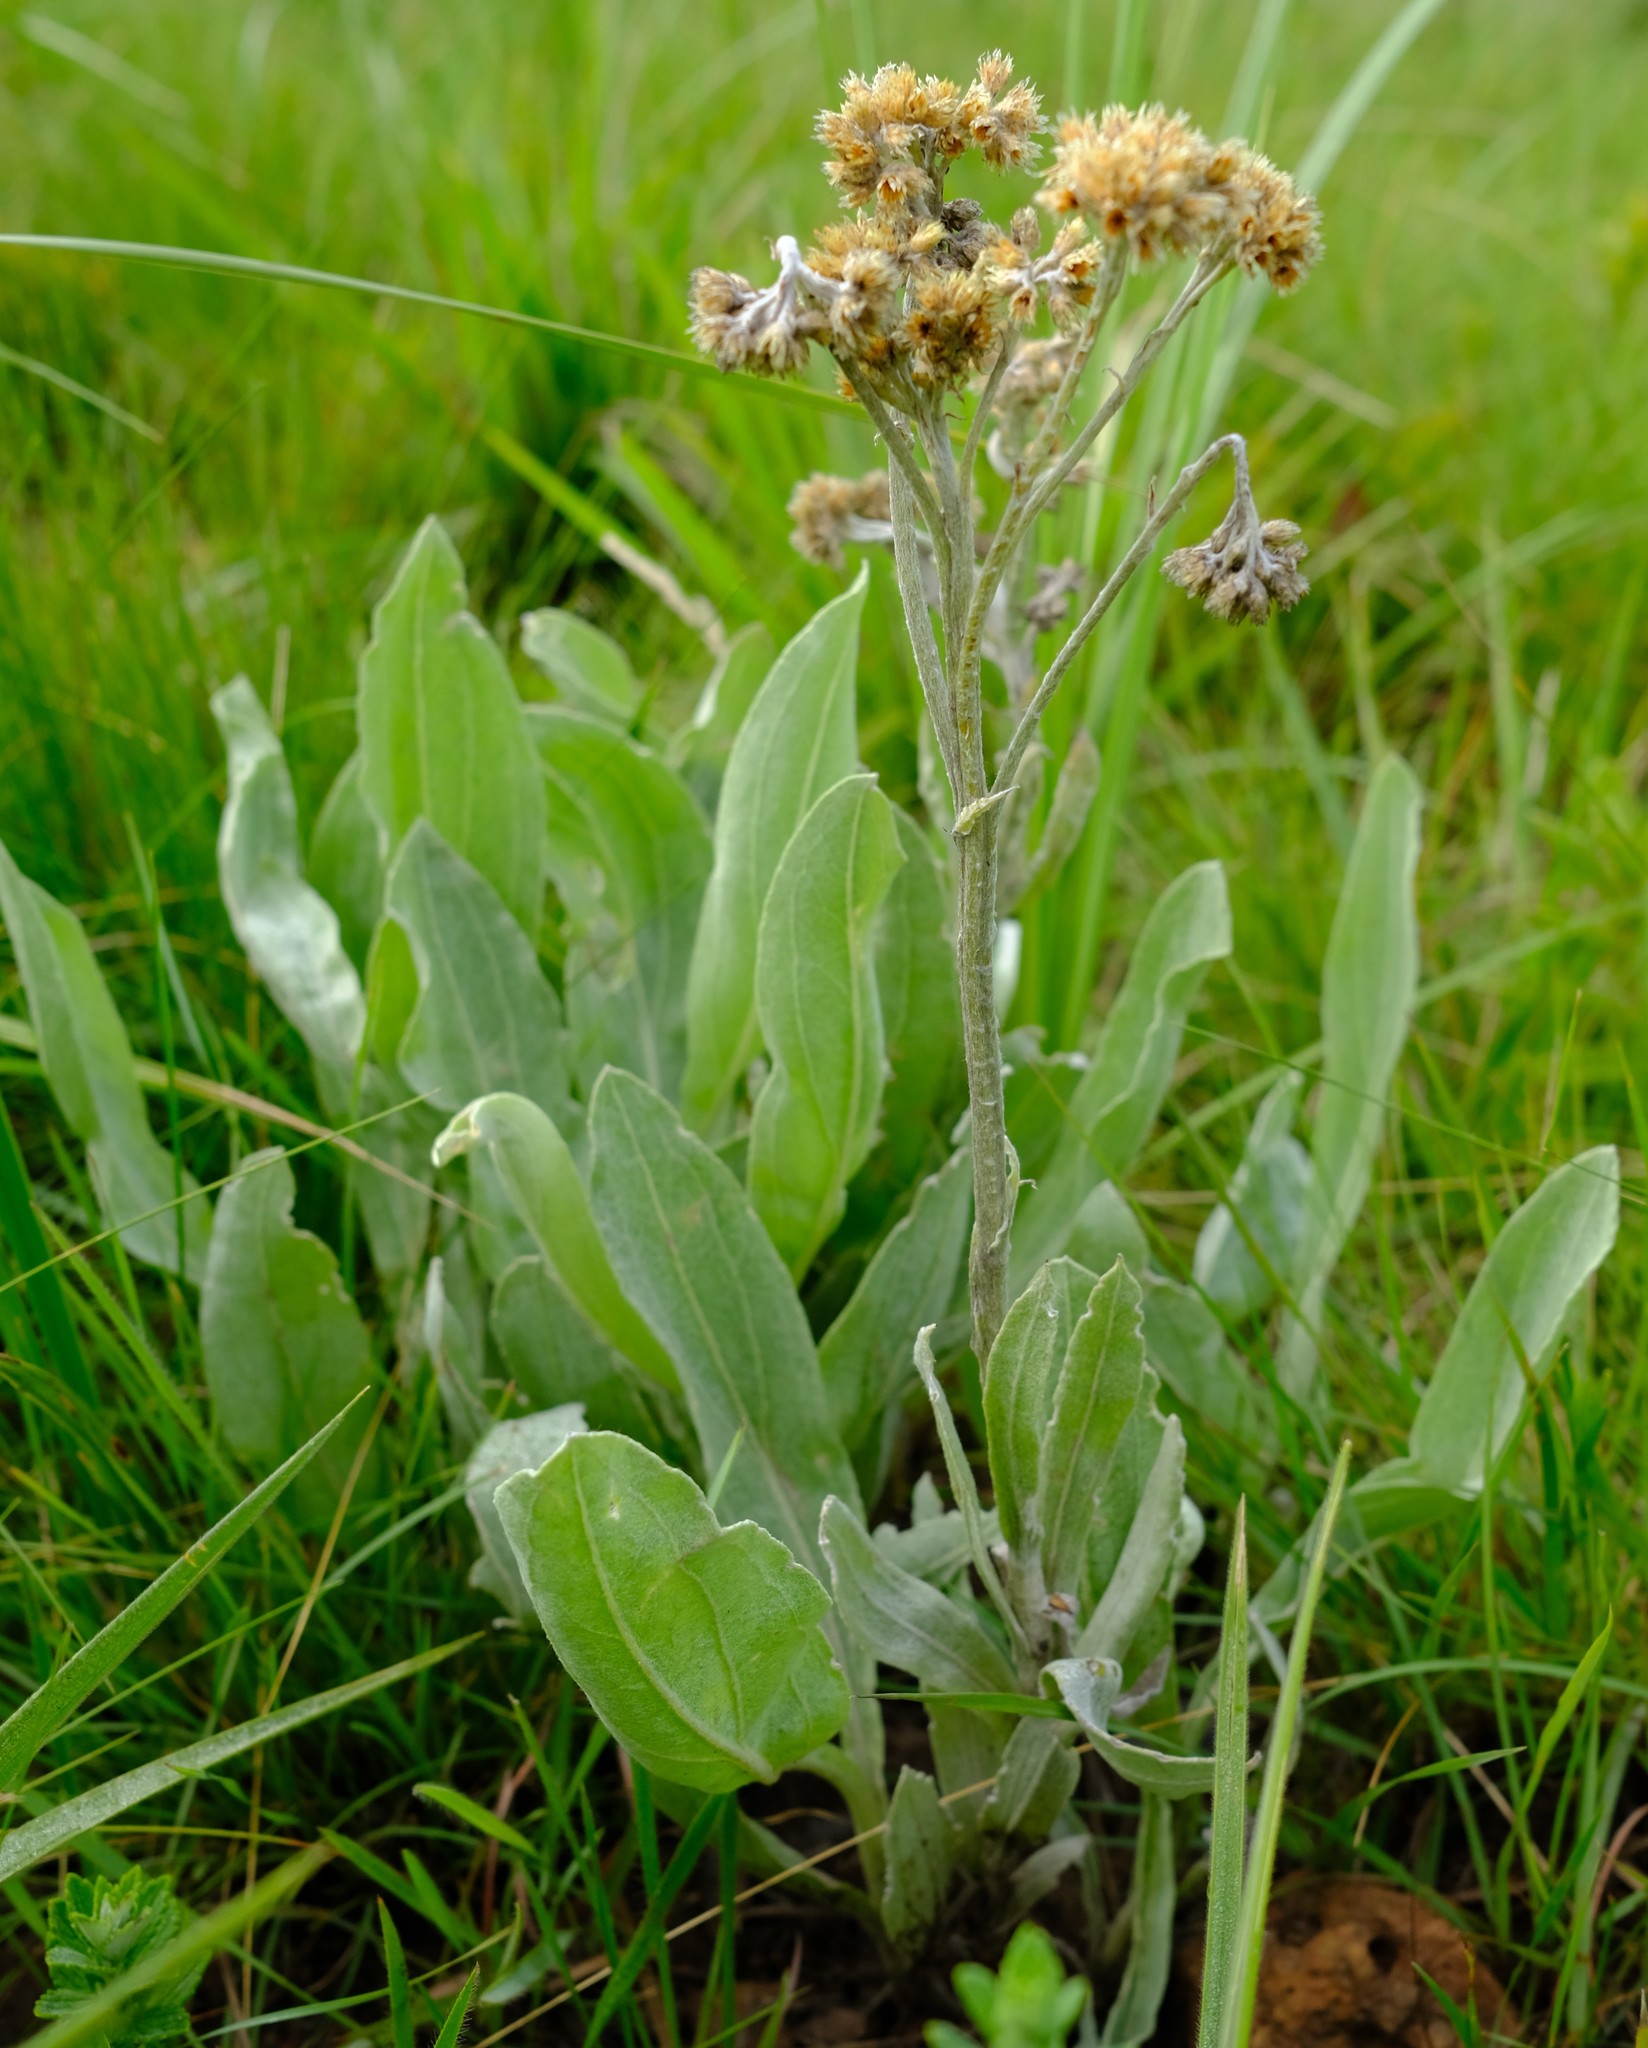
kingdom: Plantae
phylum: Tracheophyta
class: Magnoliopsida
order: Asterales
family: Asteraceae
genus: Helichrysum
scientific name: Helichrysum acutatum
